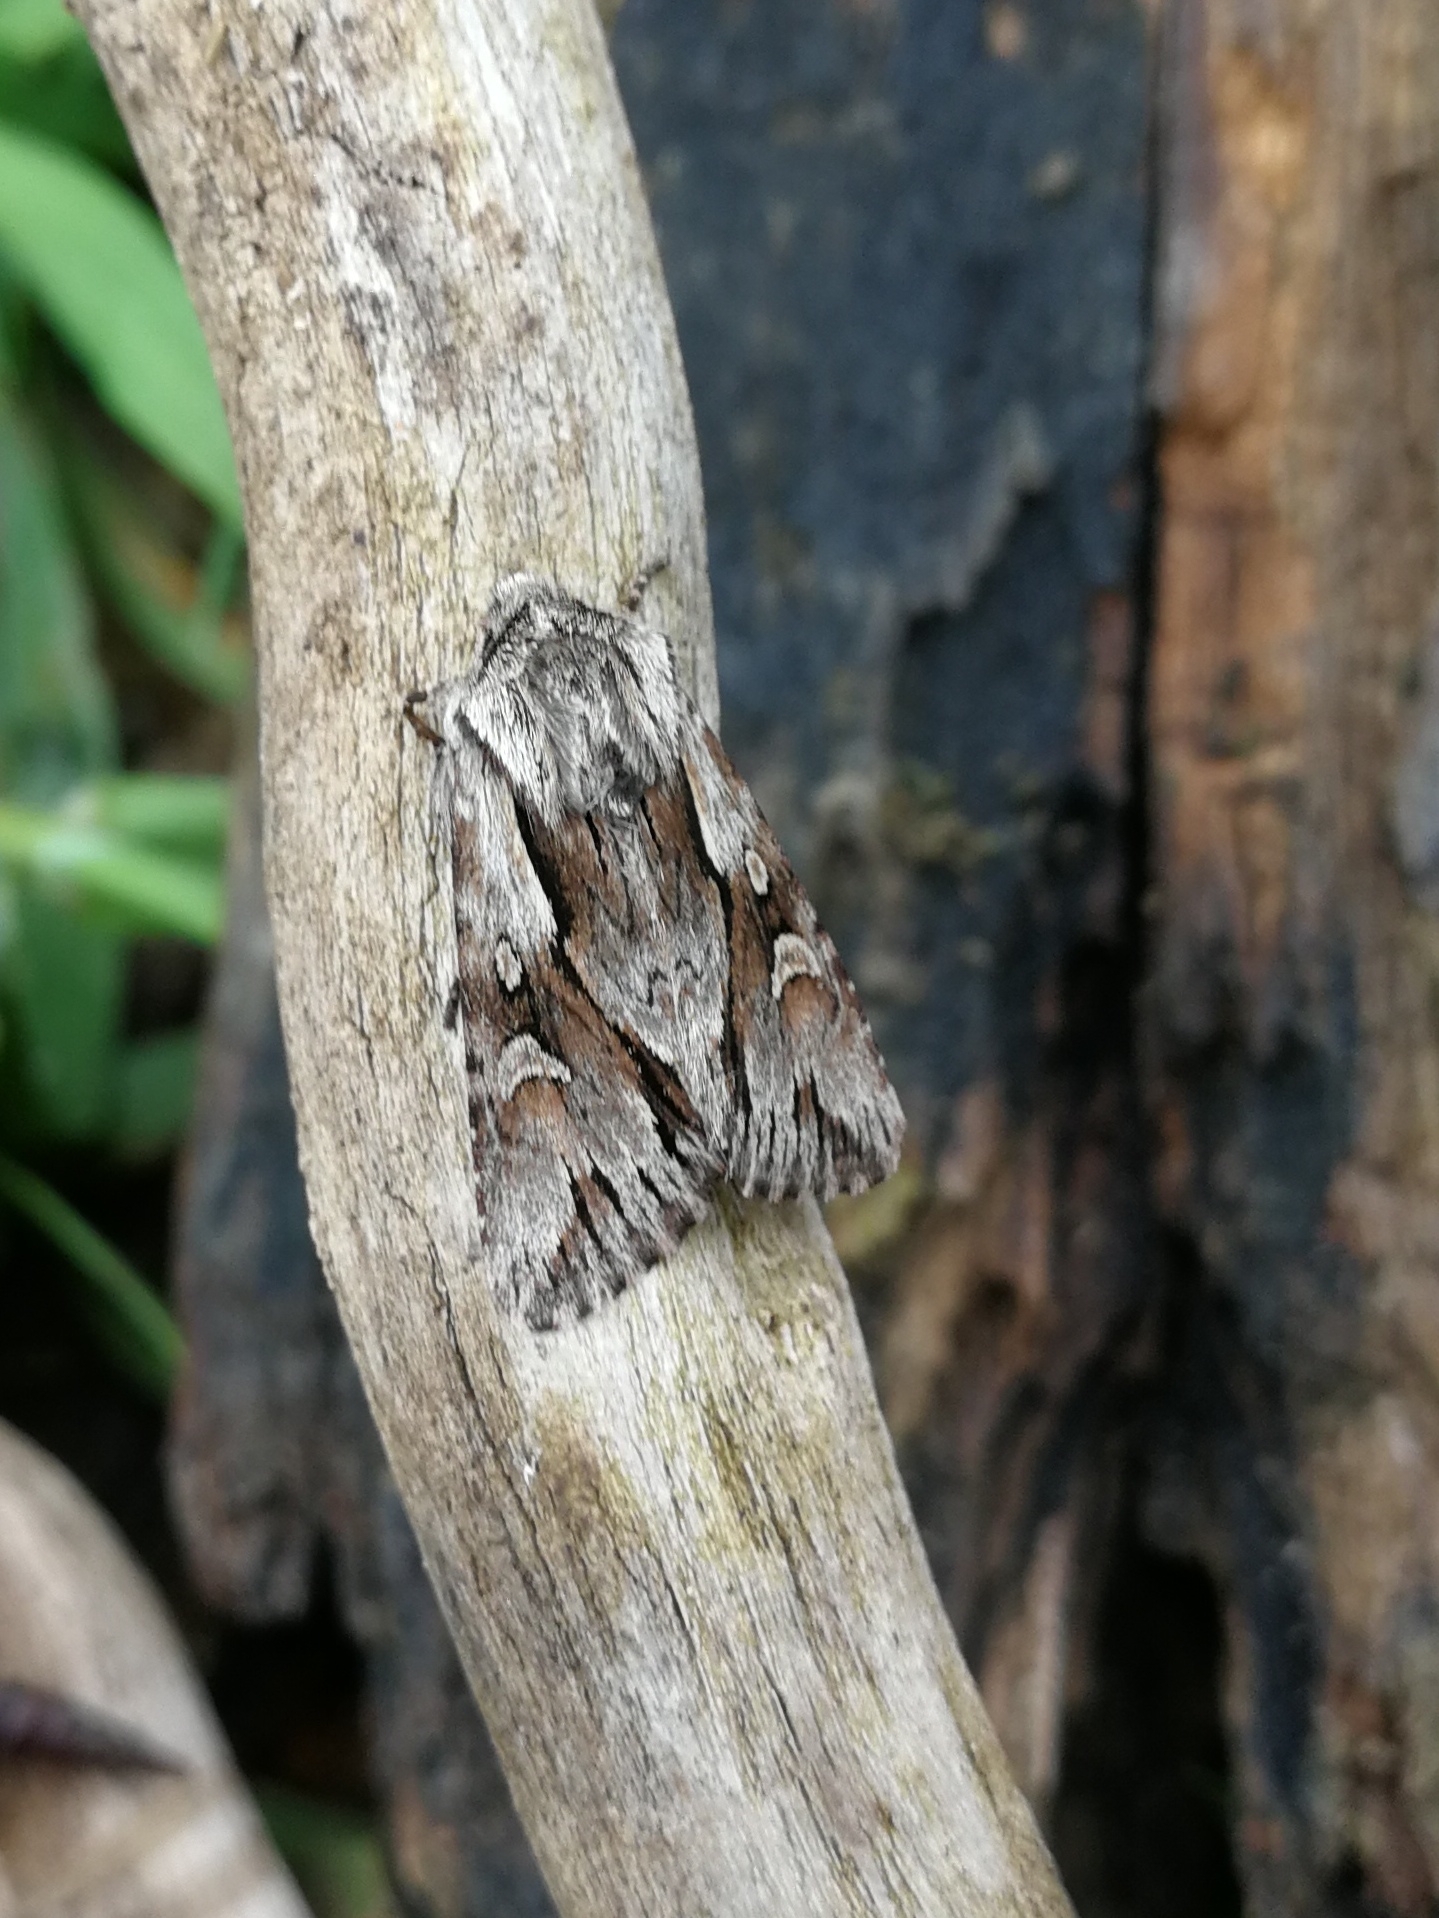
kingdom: Animalia
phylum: Arthropoda
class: Insecta
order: Lepidoptera
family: Noctuidae
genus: Chloantha
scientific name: Chloantha hyperici
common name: Pale-shouldered cloud
